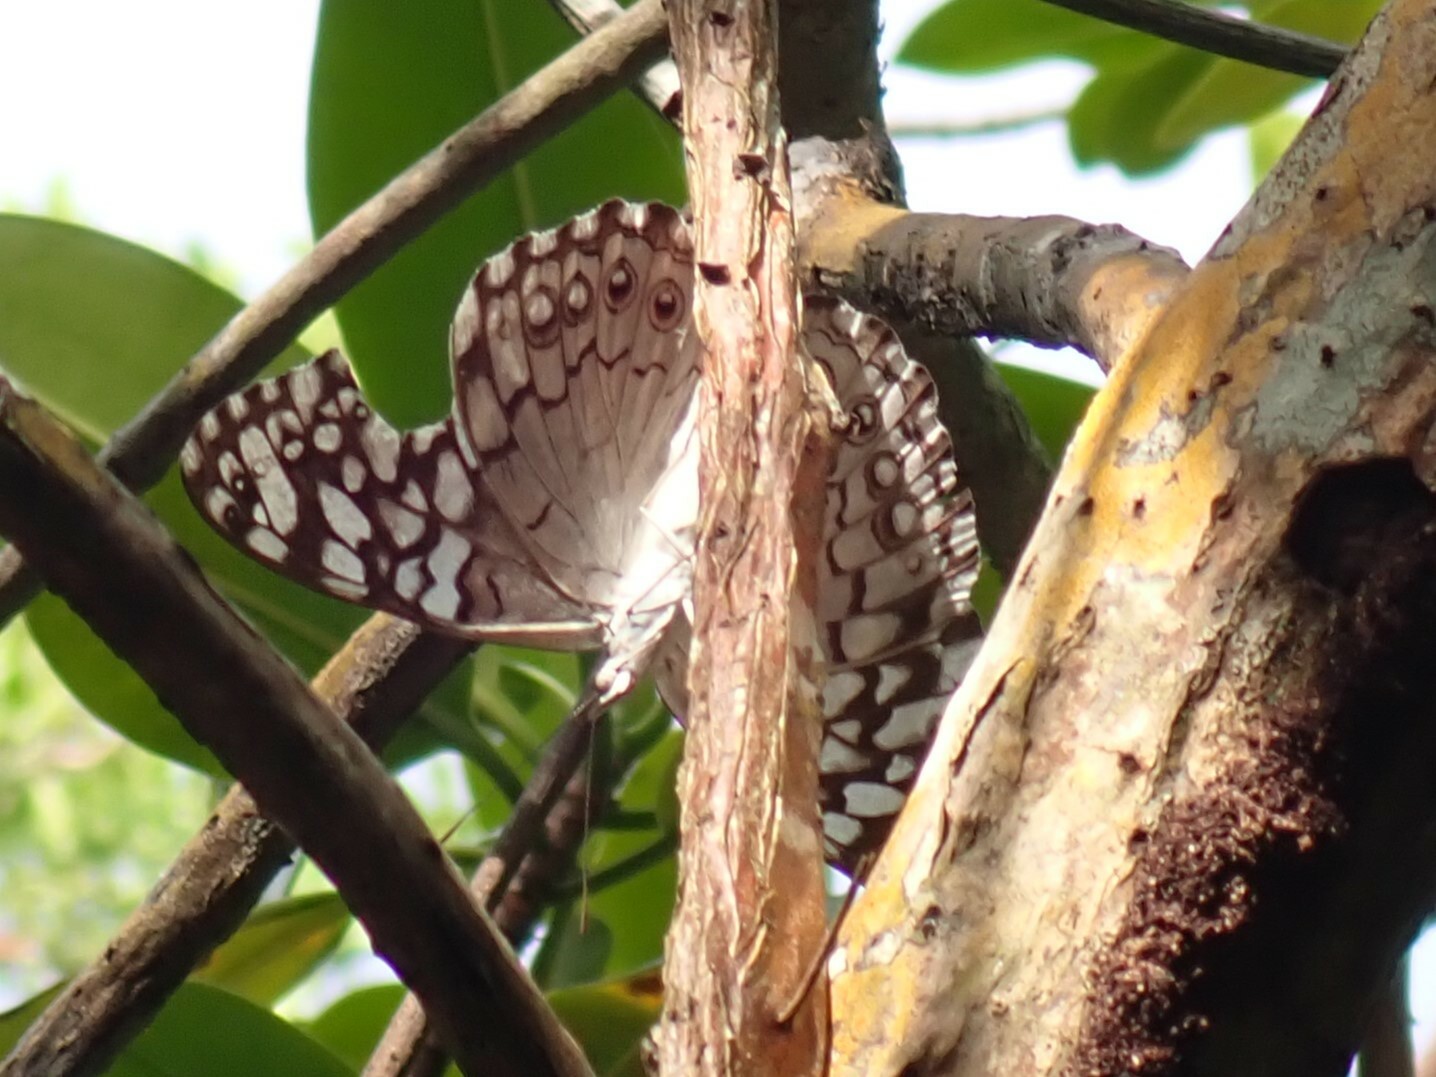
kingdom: Animalia
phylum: Arthropoda
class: Insecta
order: Lepidoptera
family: Nymphalidae
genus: Hamadryas
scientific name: Hamadryas februa
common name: Gray cracker
